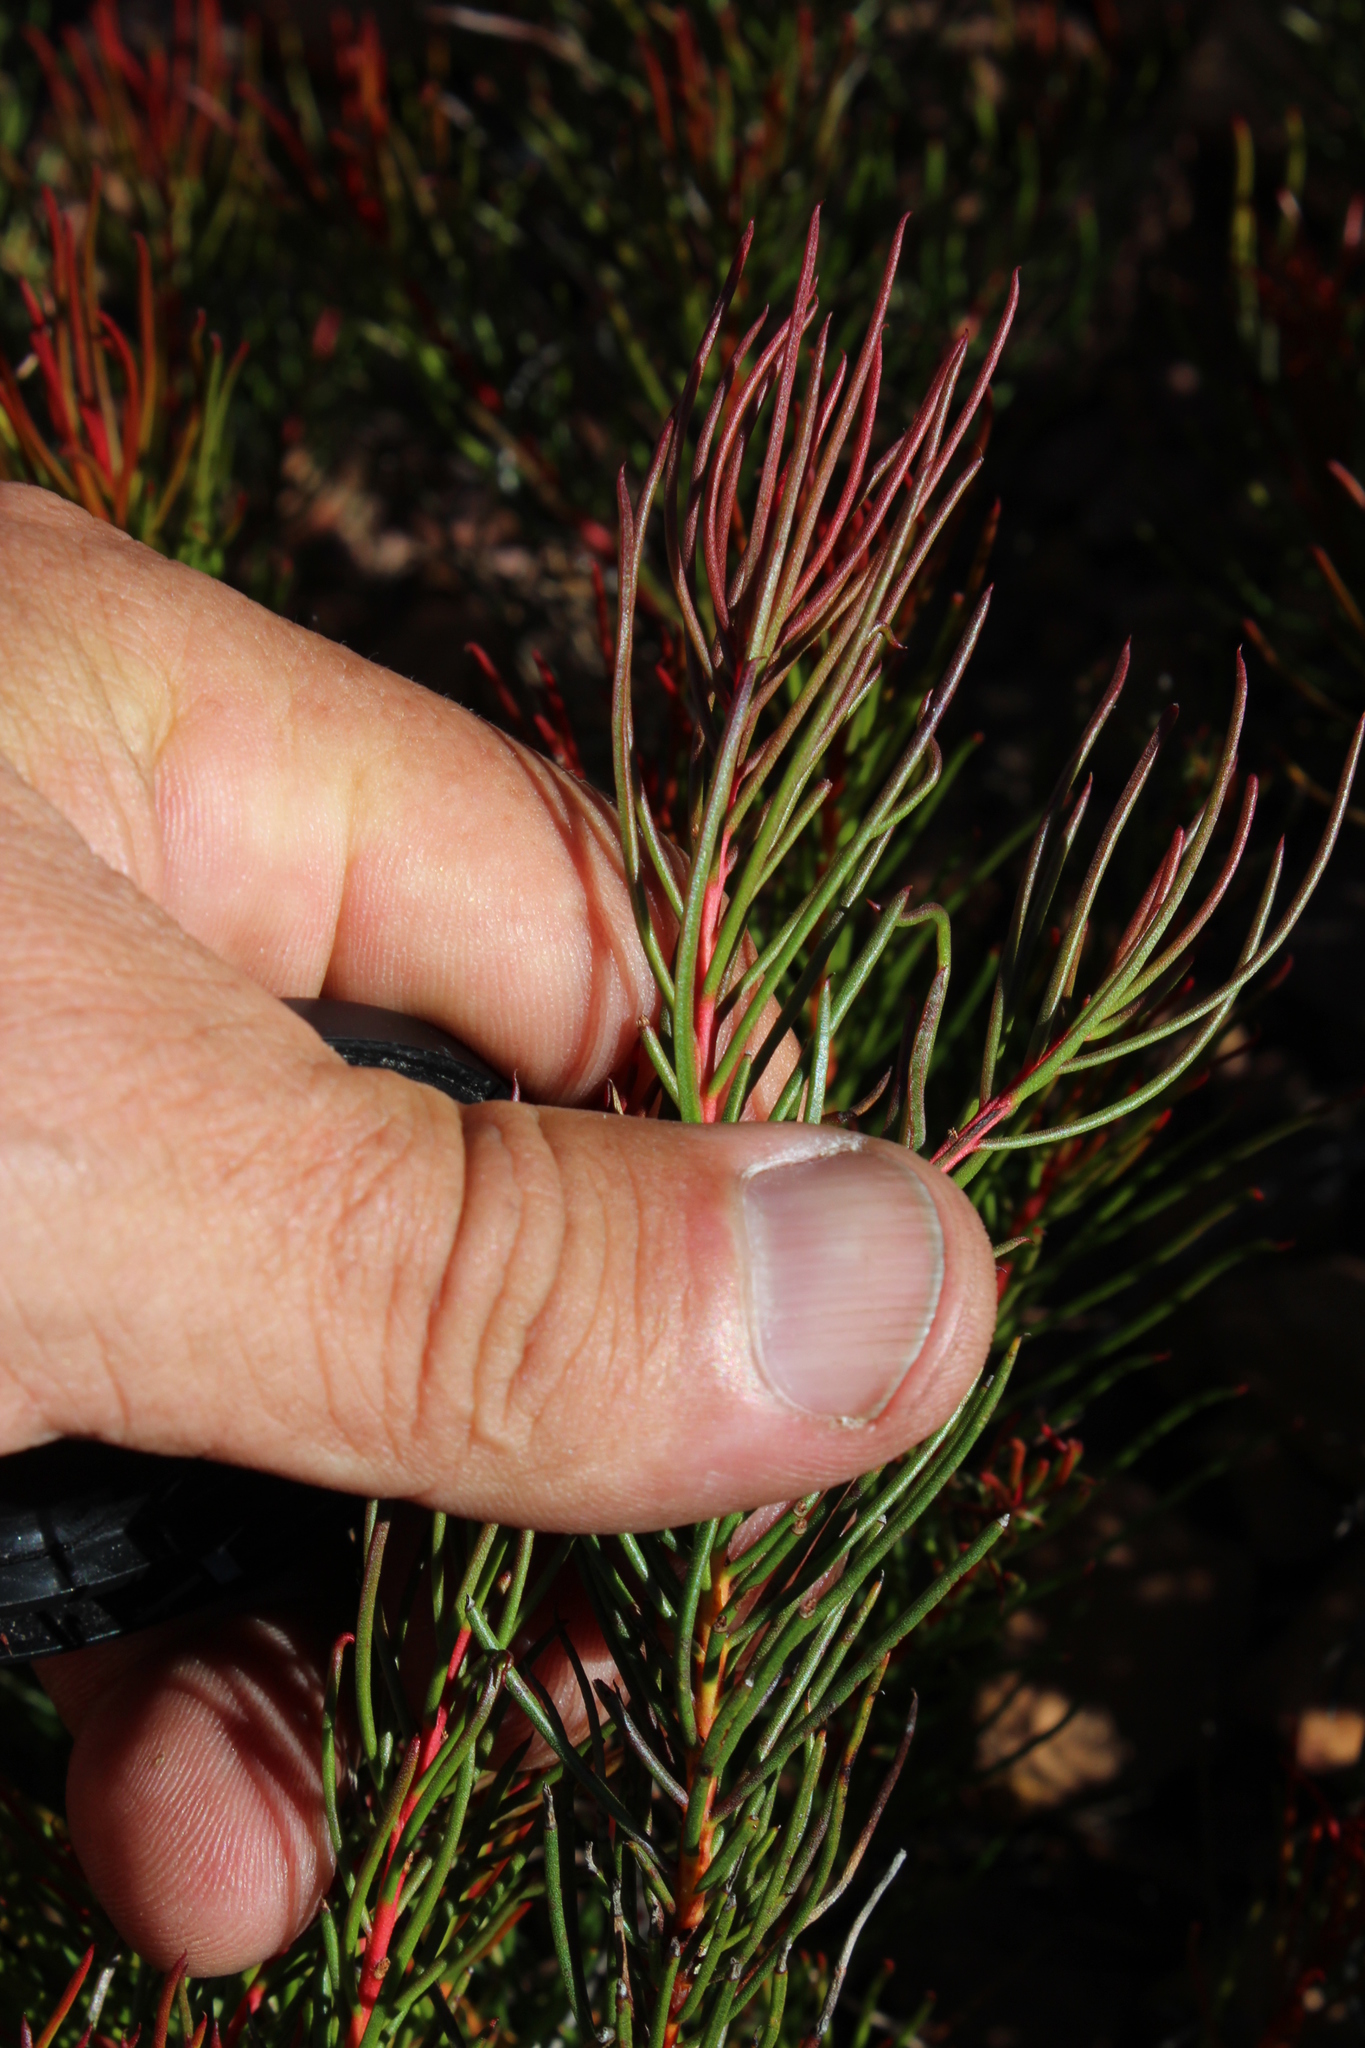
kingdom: Plantae
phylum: Tracheophyta
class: Magnoliopsida
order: Proteales
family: Proteaceae
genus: Protea
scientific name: Protea subulifolia
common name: Awl-leaf sugarbush
